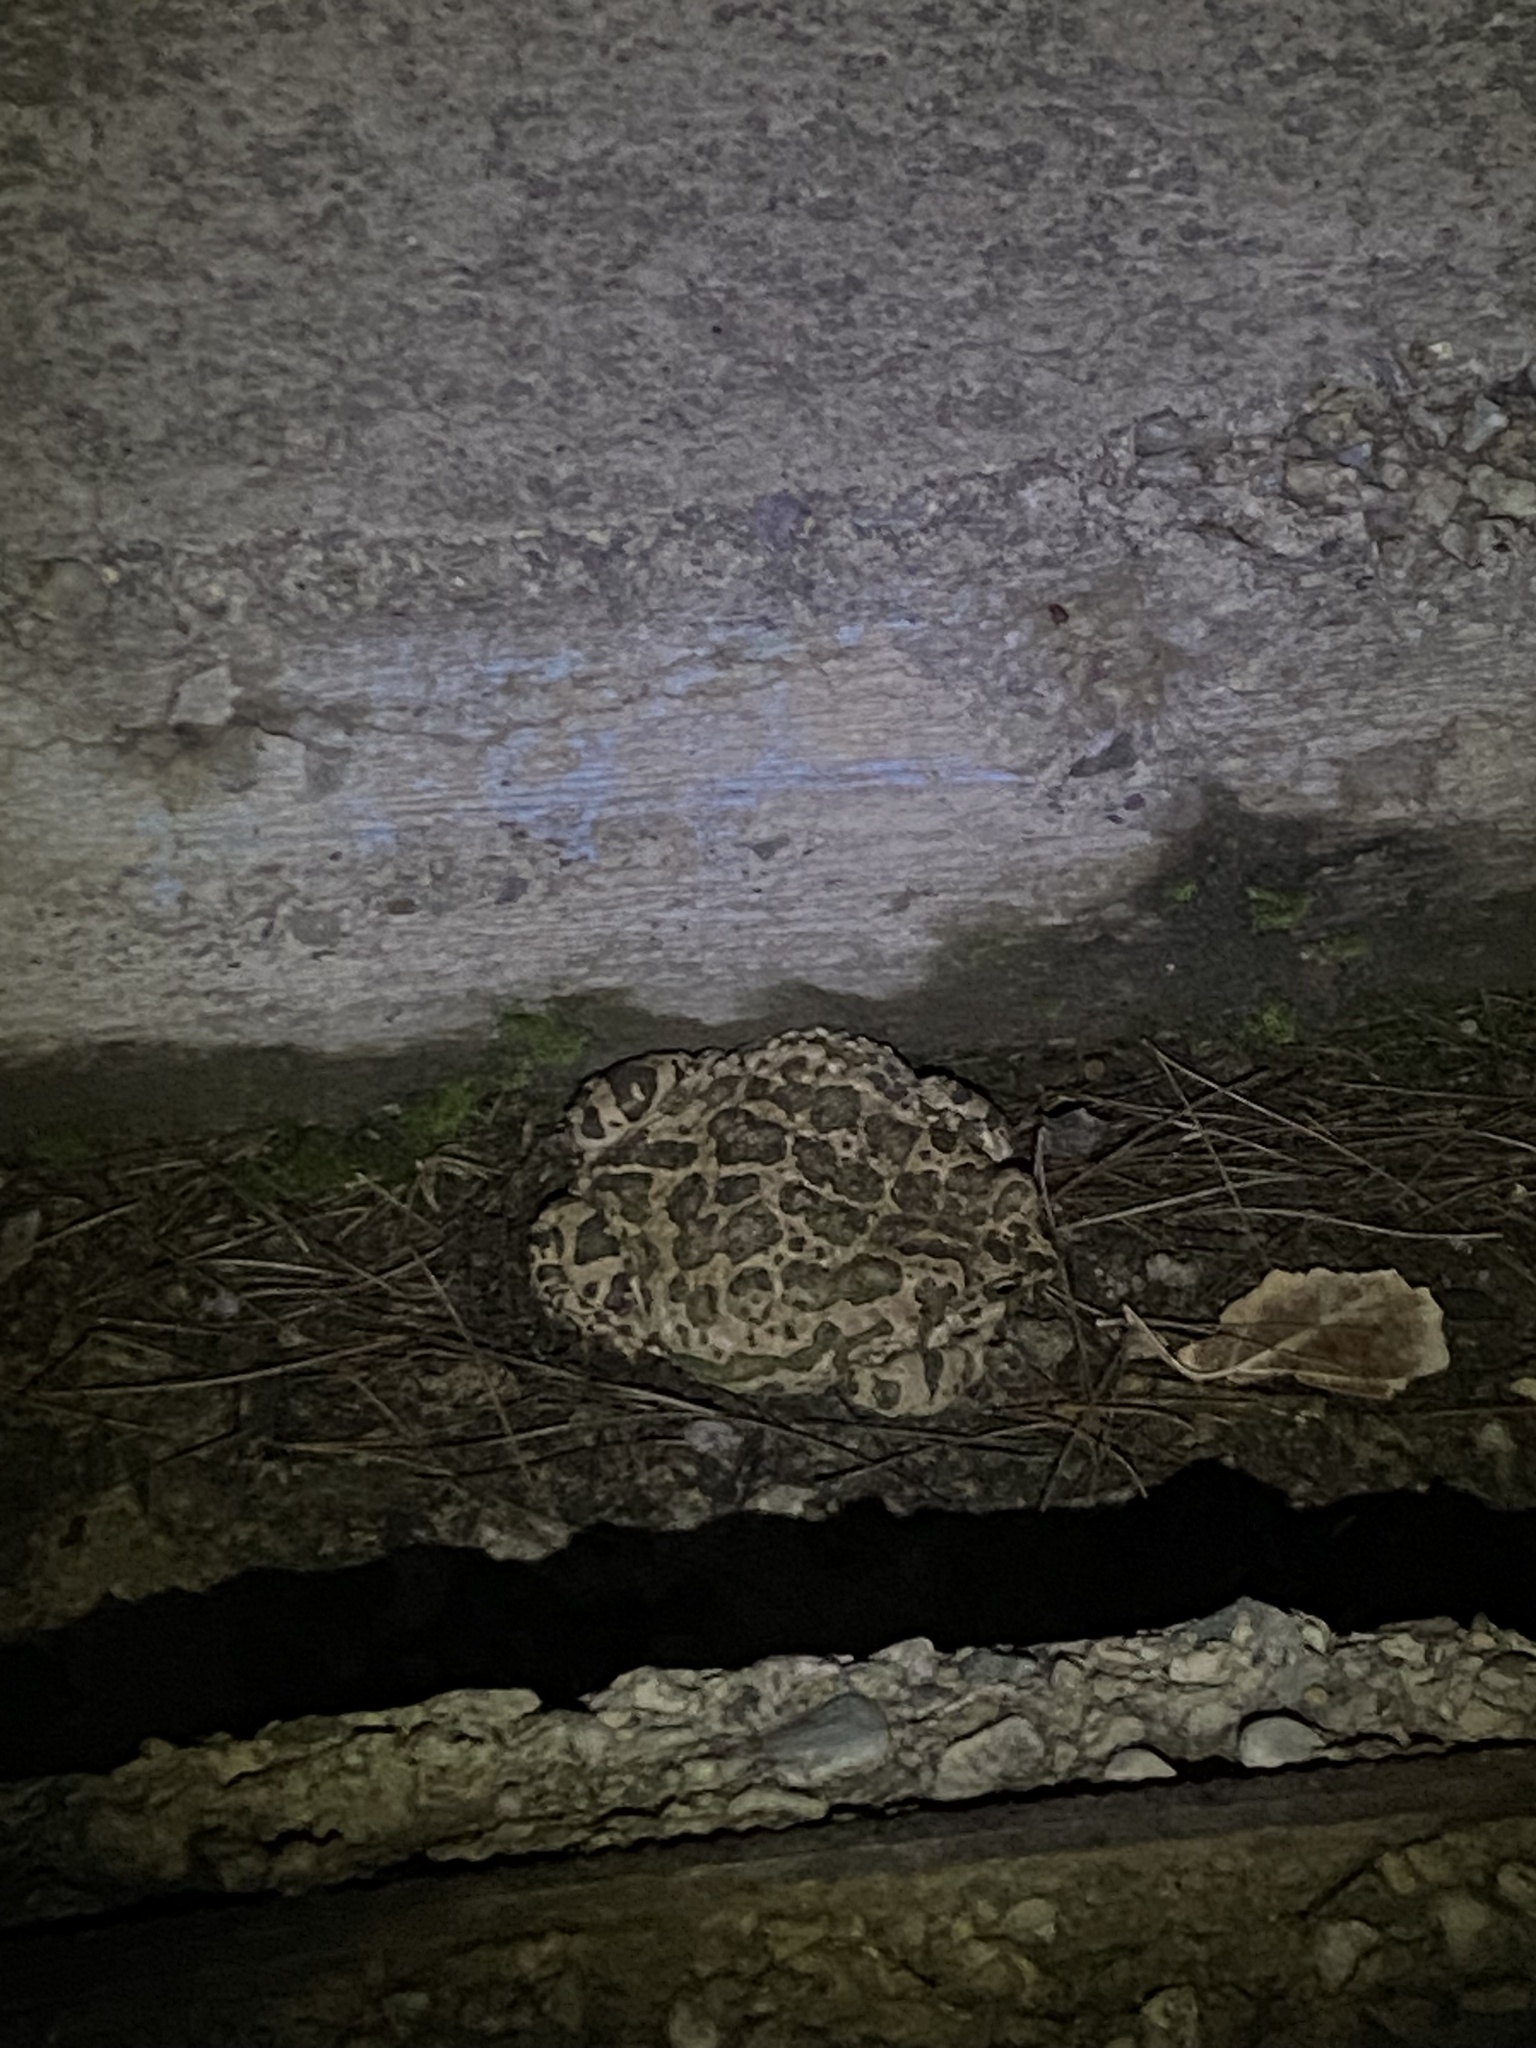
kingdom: Animalia
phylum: Chordata
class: Amphibia
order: Anura
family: Bufonidae
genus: Bufotes
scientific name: Bufotes viridis
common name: European green toad
